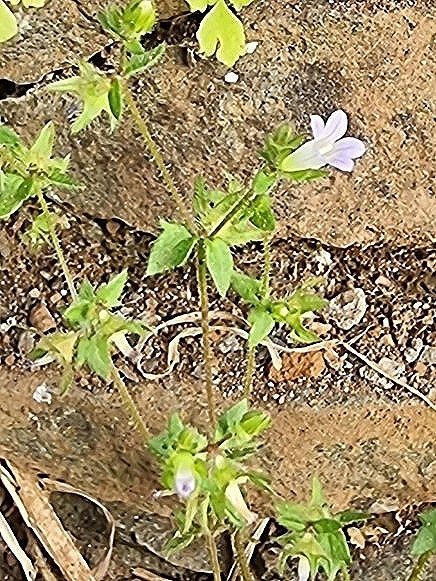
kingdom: Plantae
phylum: Tracheophyta
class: Magnoliopsida
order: Asterales
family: Campanulaceae
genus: Campanula
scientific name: Campanula erinus
